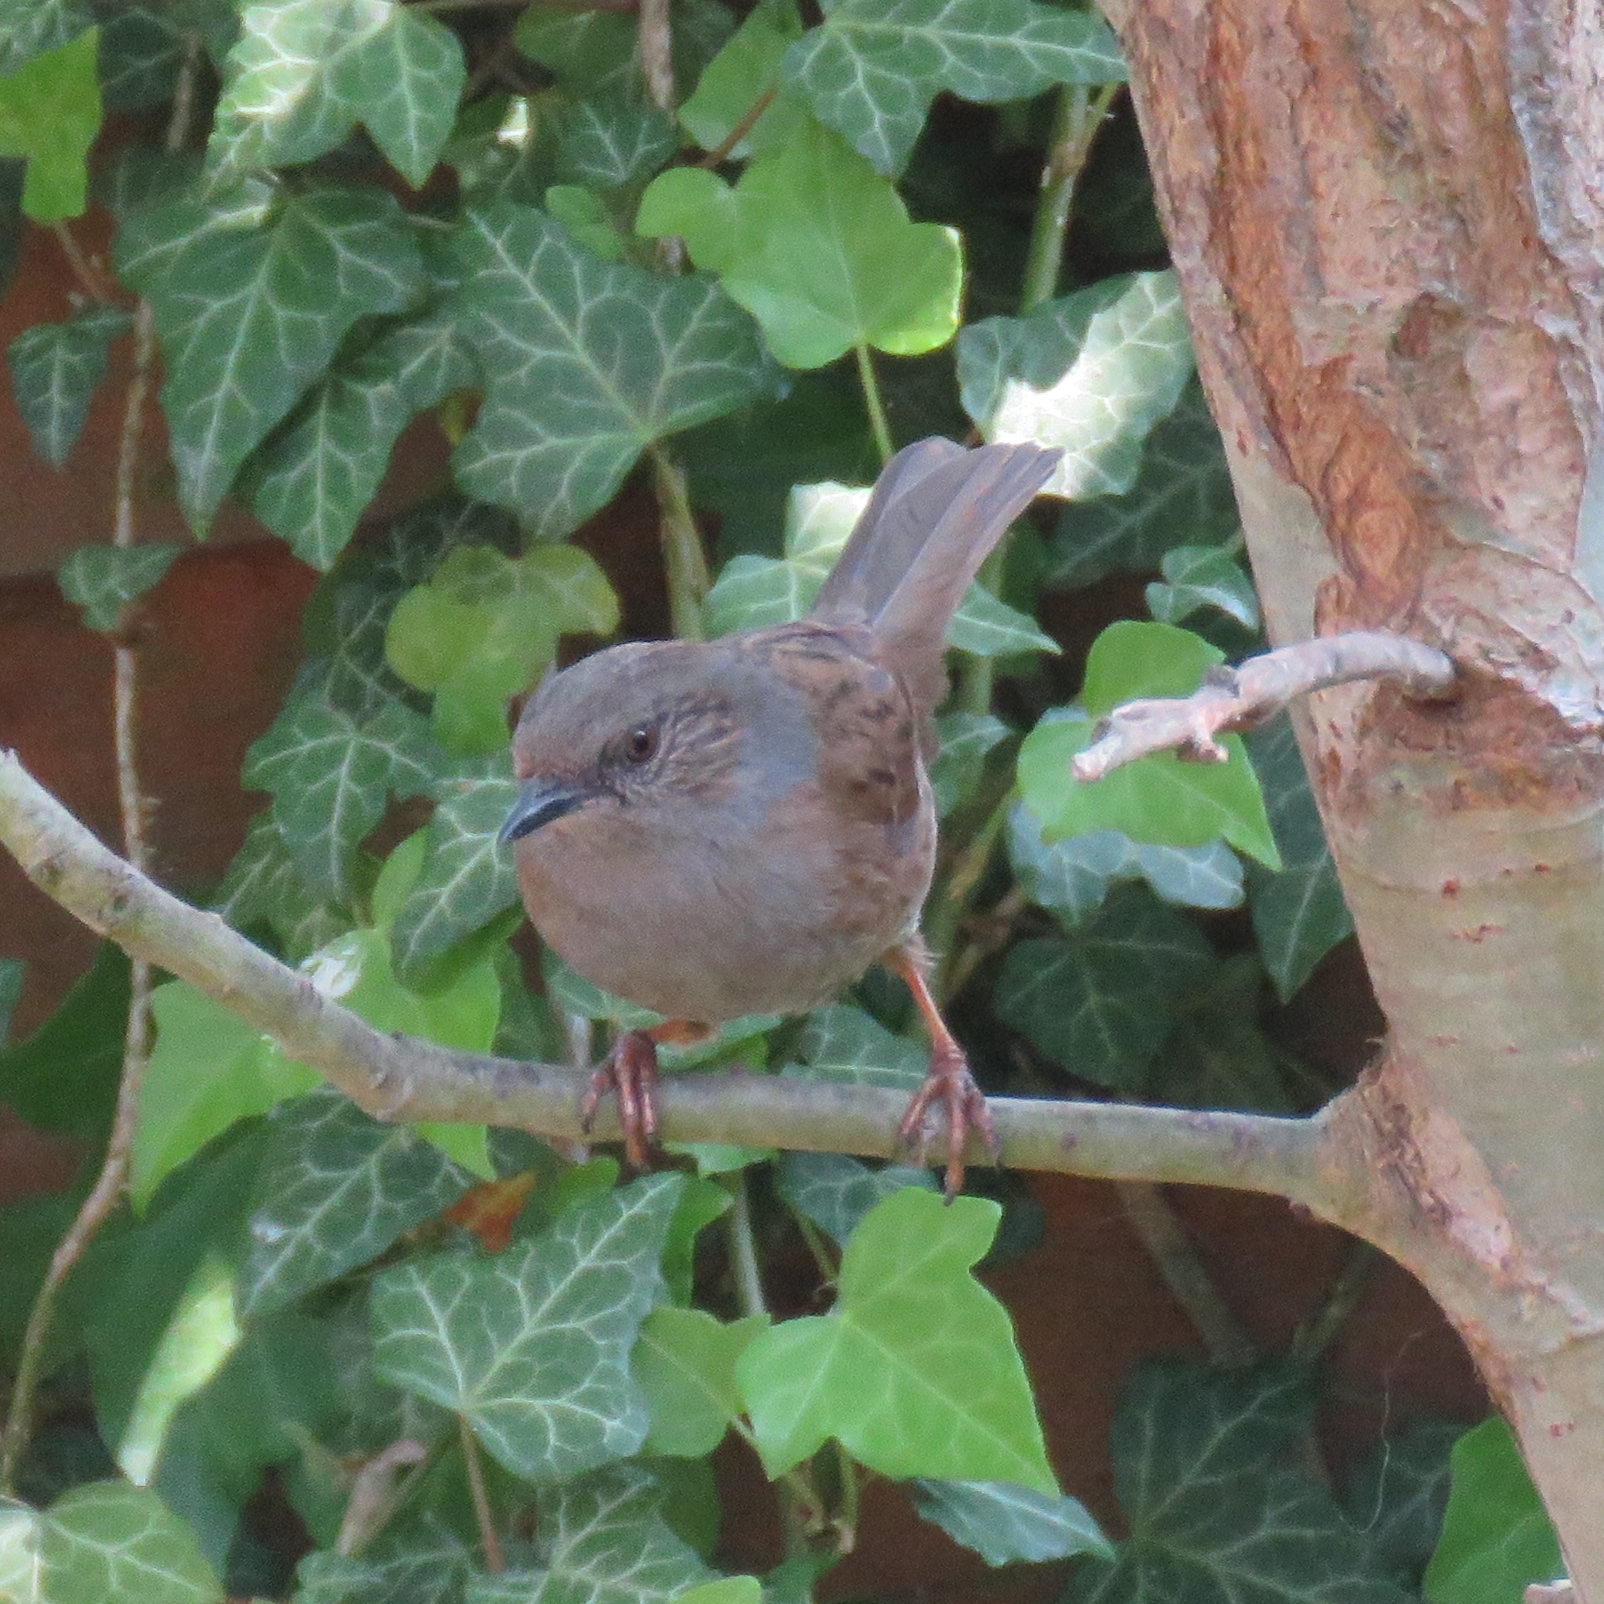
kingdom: Animalia
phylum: Chordata
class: Aves
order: Passeriformes
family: Prunellidae
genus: Prunella
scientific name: Prunella modularis
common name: Dunnock
